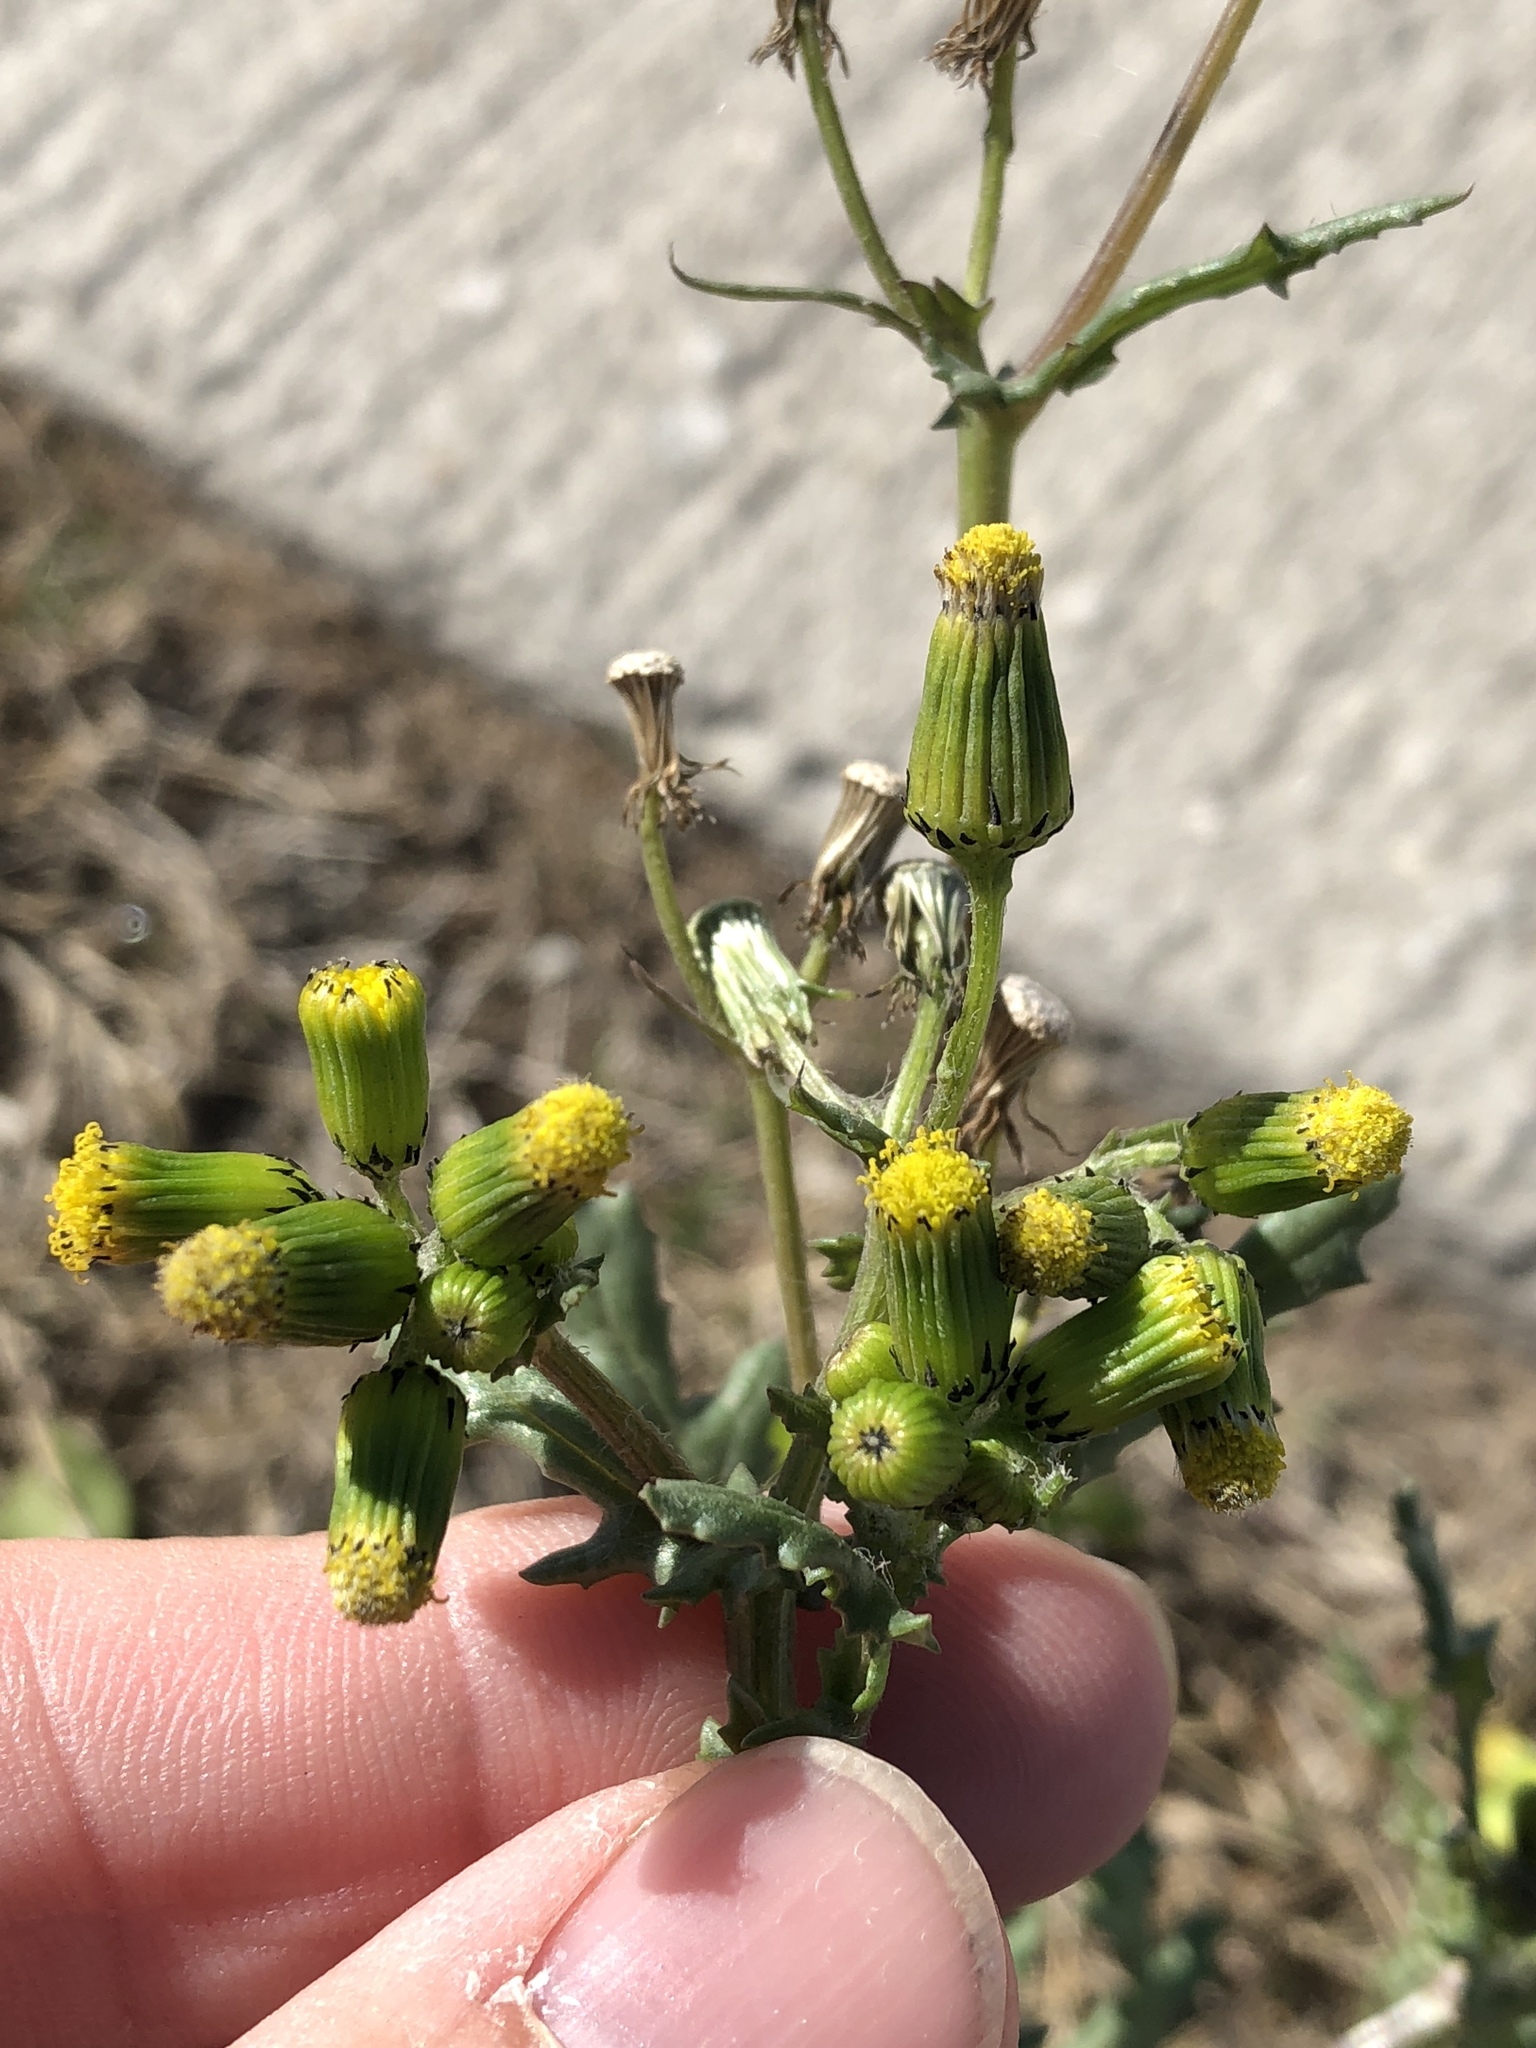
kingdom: Plantae
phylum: Tracheophyta
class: Magnoliopsida
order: Asterales
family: Asteraceae
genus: Senecio
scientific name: Senecio vulgaris
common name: Old-man-in-the-spring
